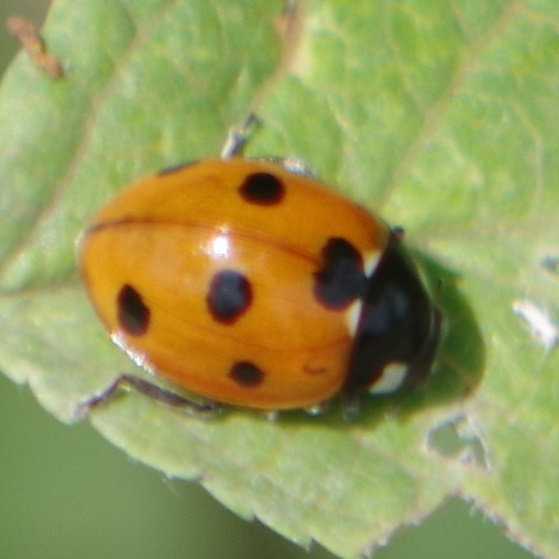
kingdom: Animalia
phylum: Arthropoda
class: Insecta
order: Coleoptera
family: Coccinellidae
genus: Coccinella
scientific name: Coccinella septempunctata
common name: Sevenspotted lady beetle
